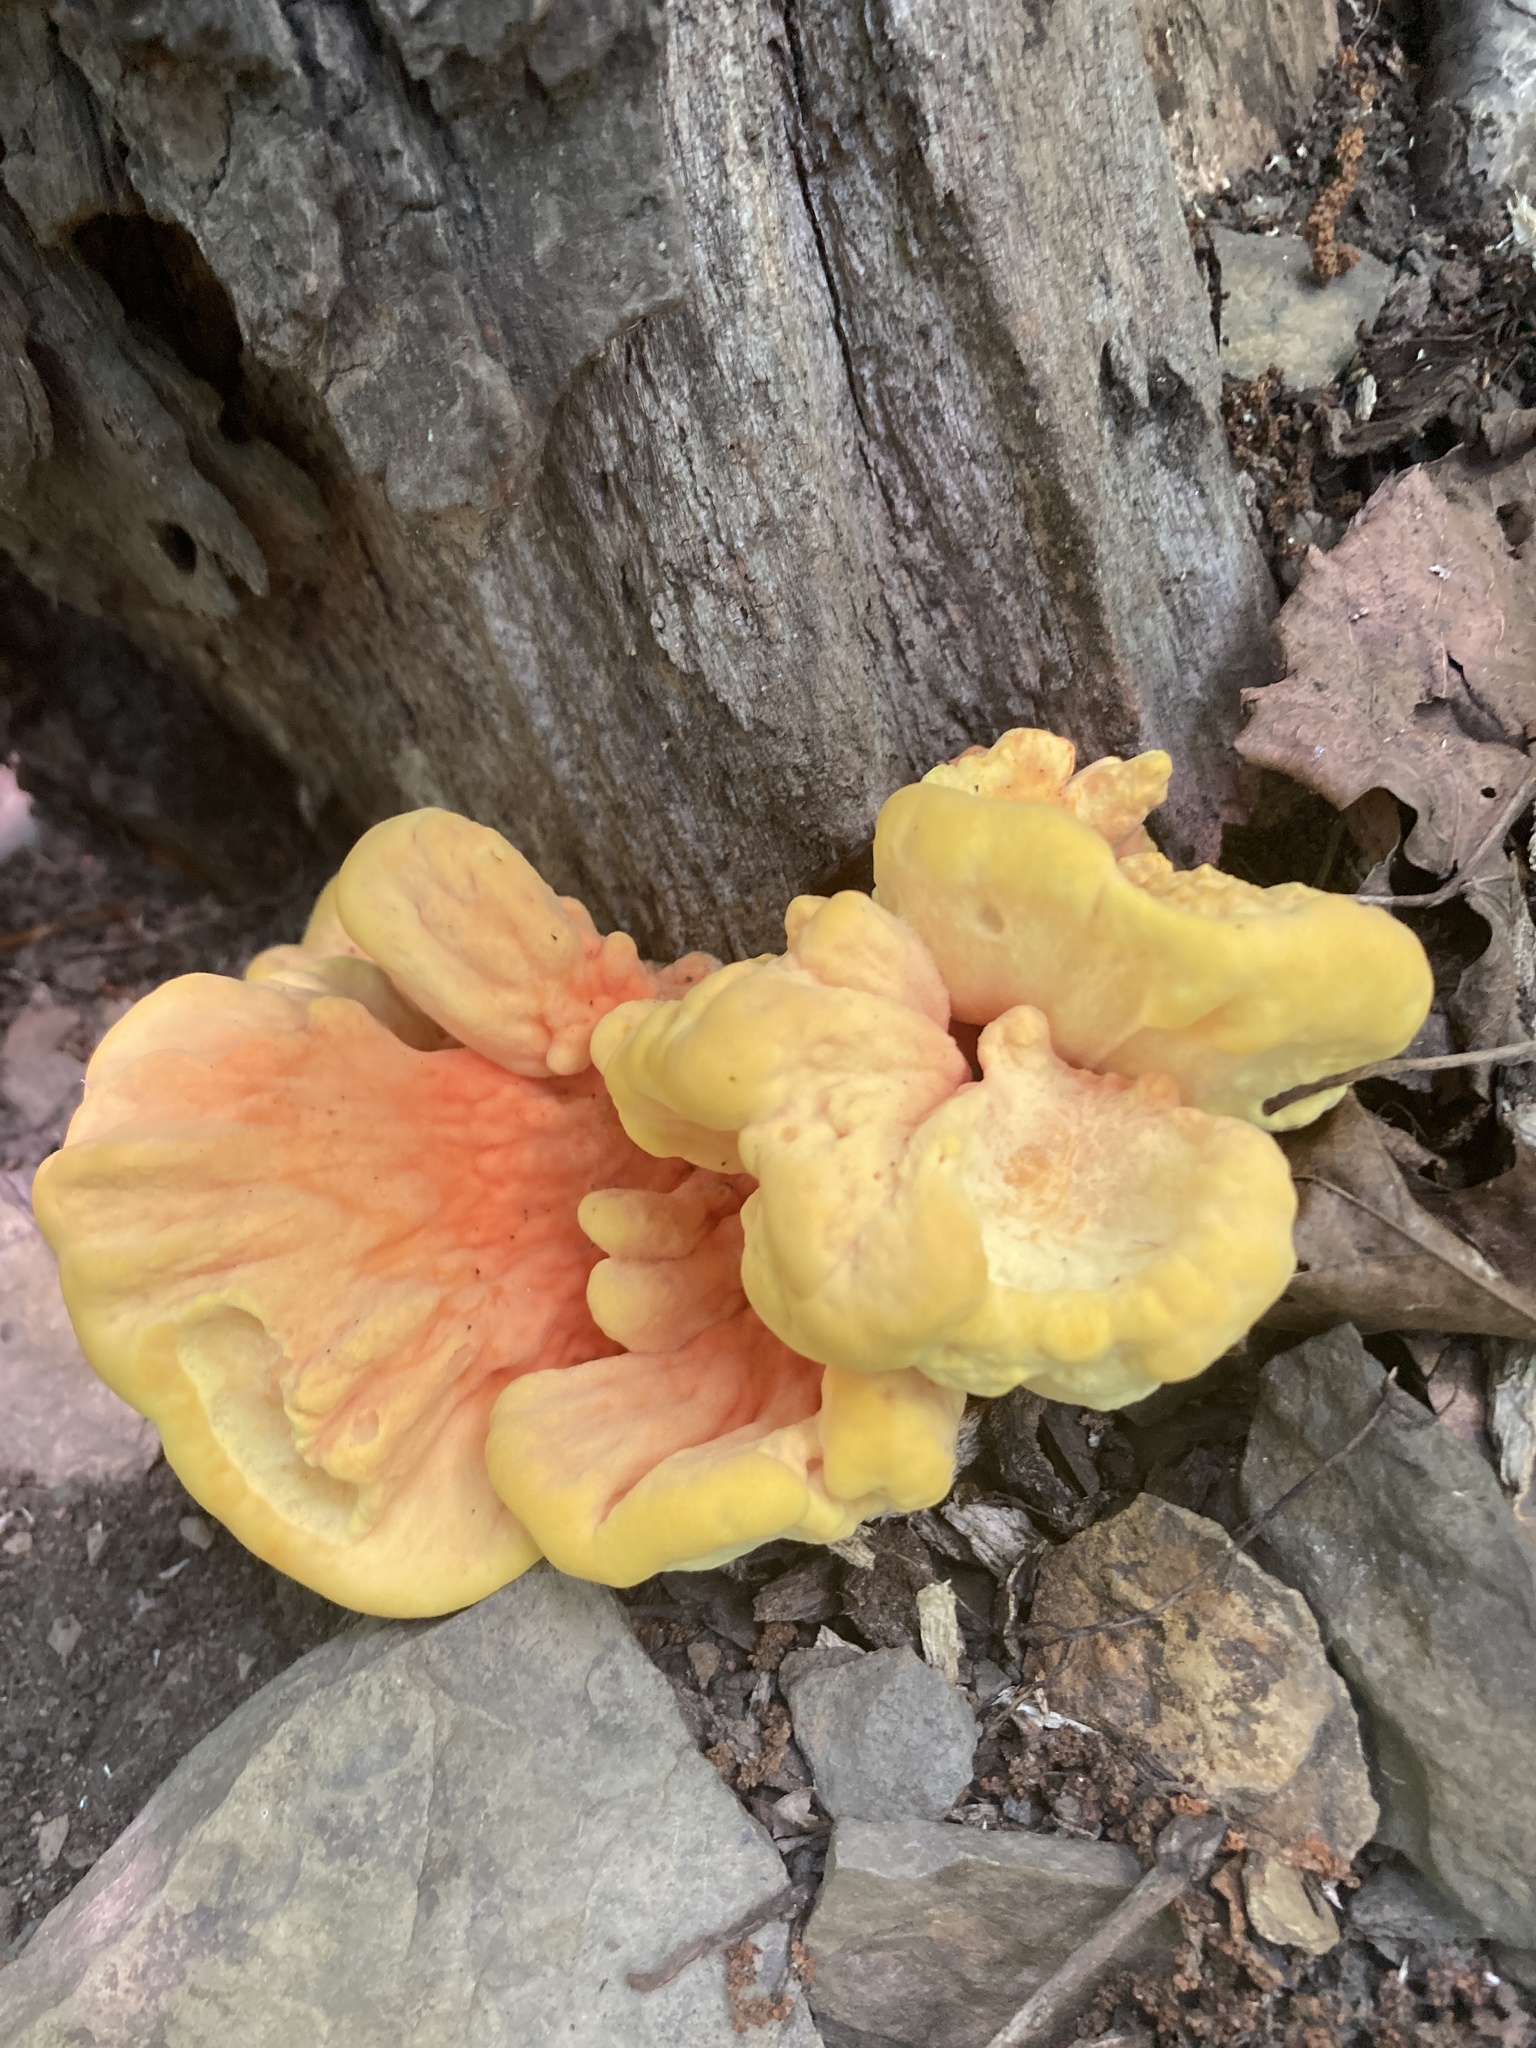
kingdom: Fungi
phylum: Basidiomycota
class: Agaricomycetes
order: Polyporales
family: Laetiporaceae
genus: Laetiporus
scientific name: Laetiporus sulphureus
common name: Chicken of the woods
